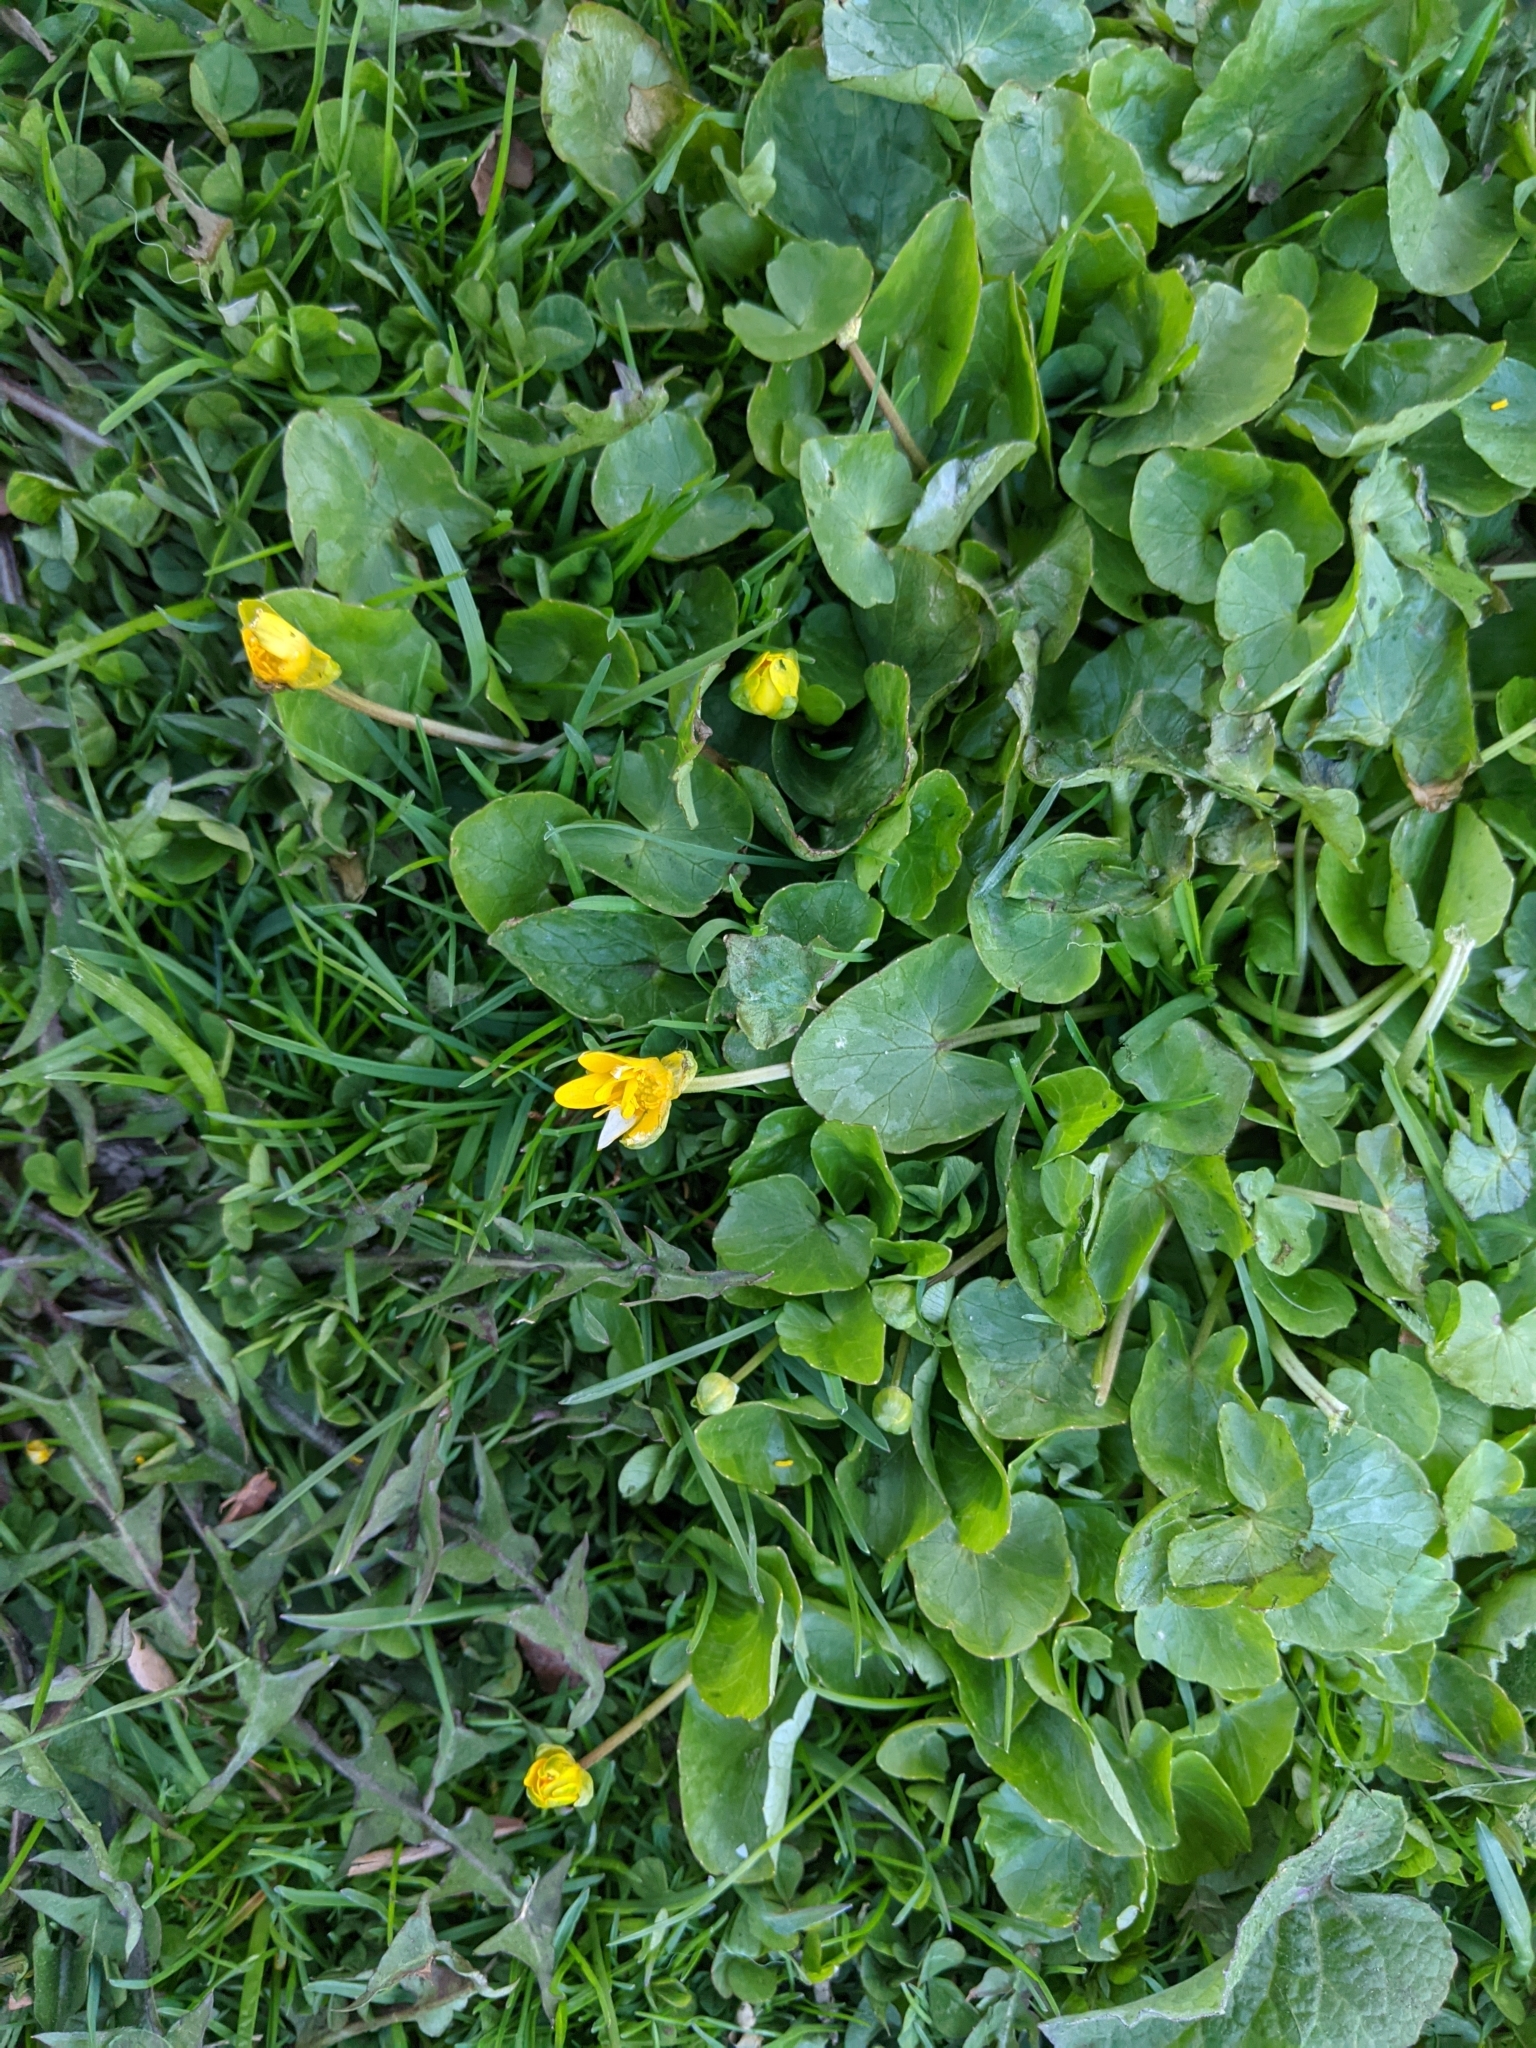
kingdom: Plantae
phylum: Tracheophyta
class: Magnoliopsida
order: Ranunculales
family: Ranunculaceae
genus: Ficaria
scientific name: Ficaria verna
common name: Lesser celandine
